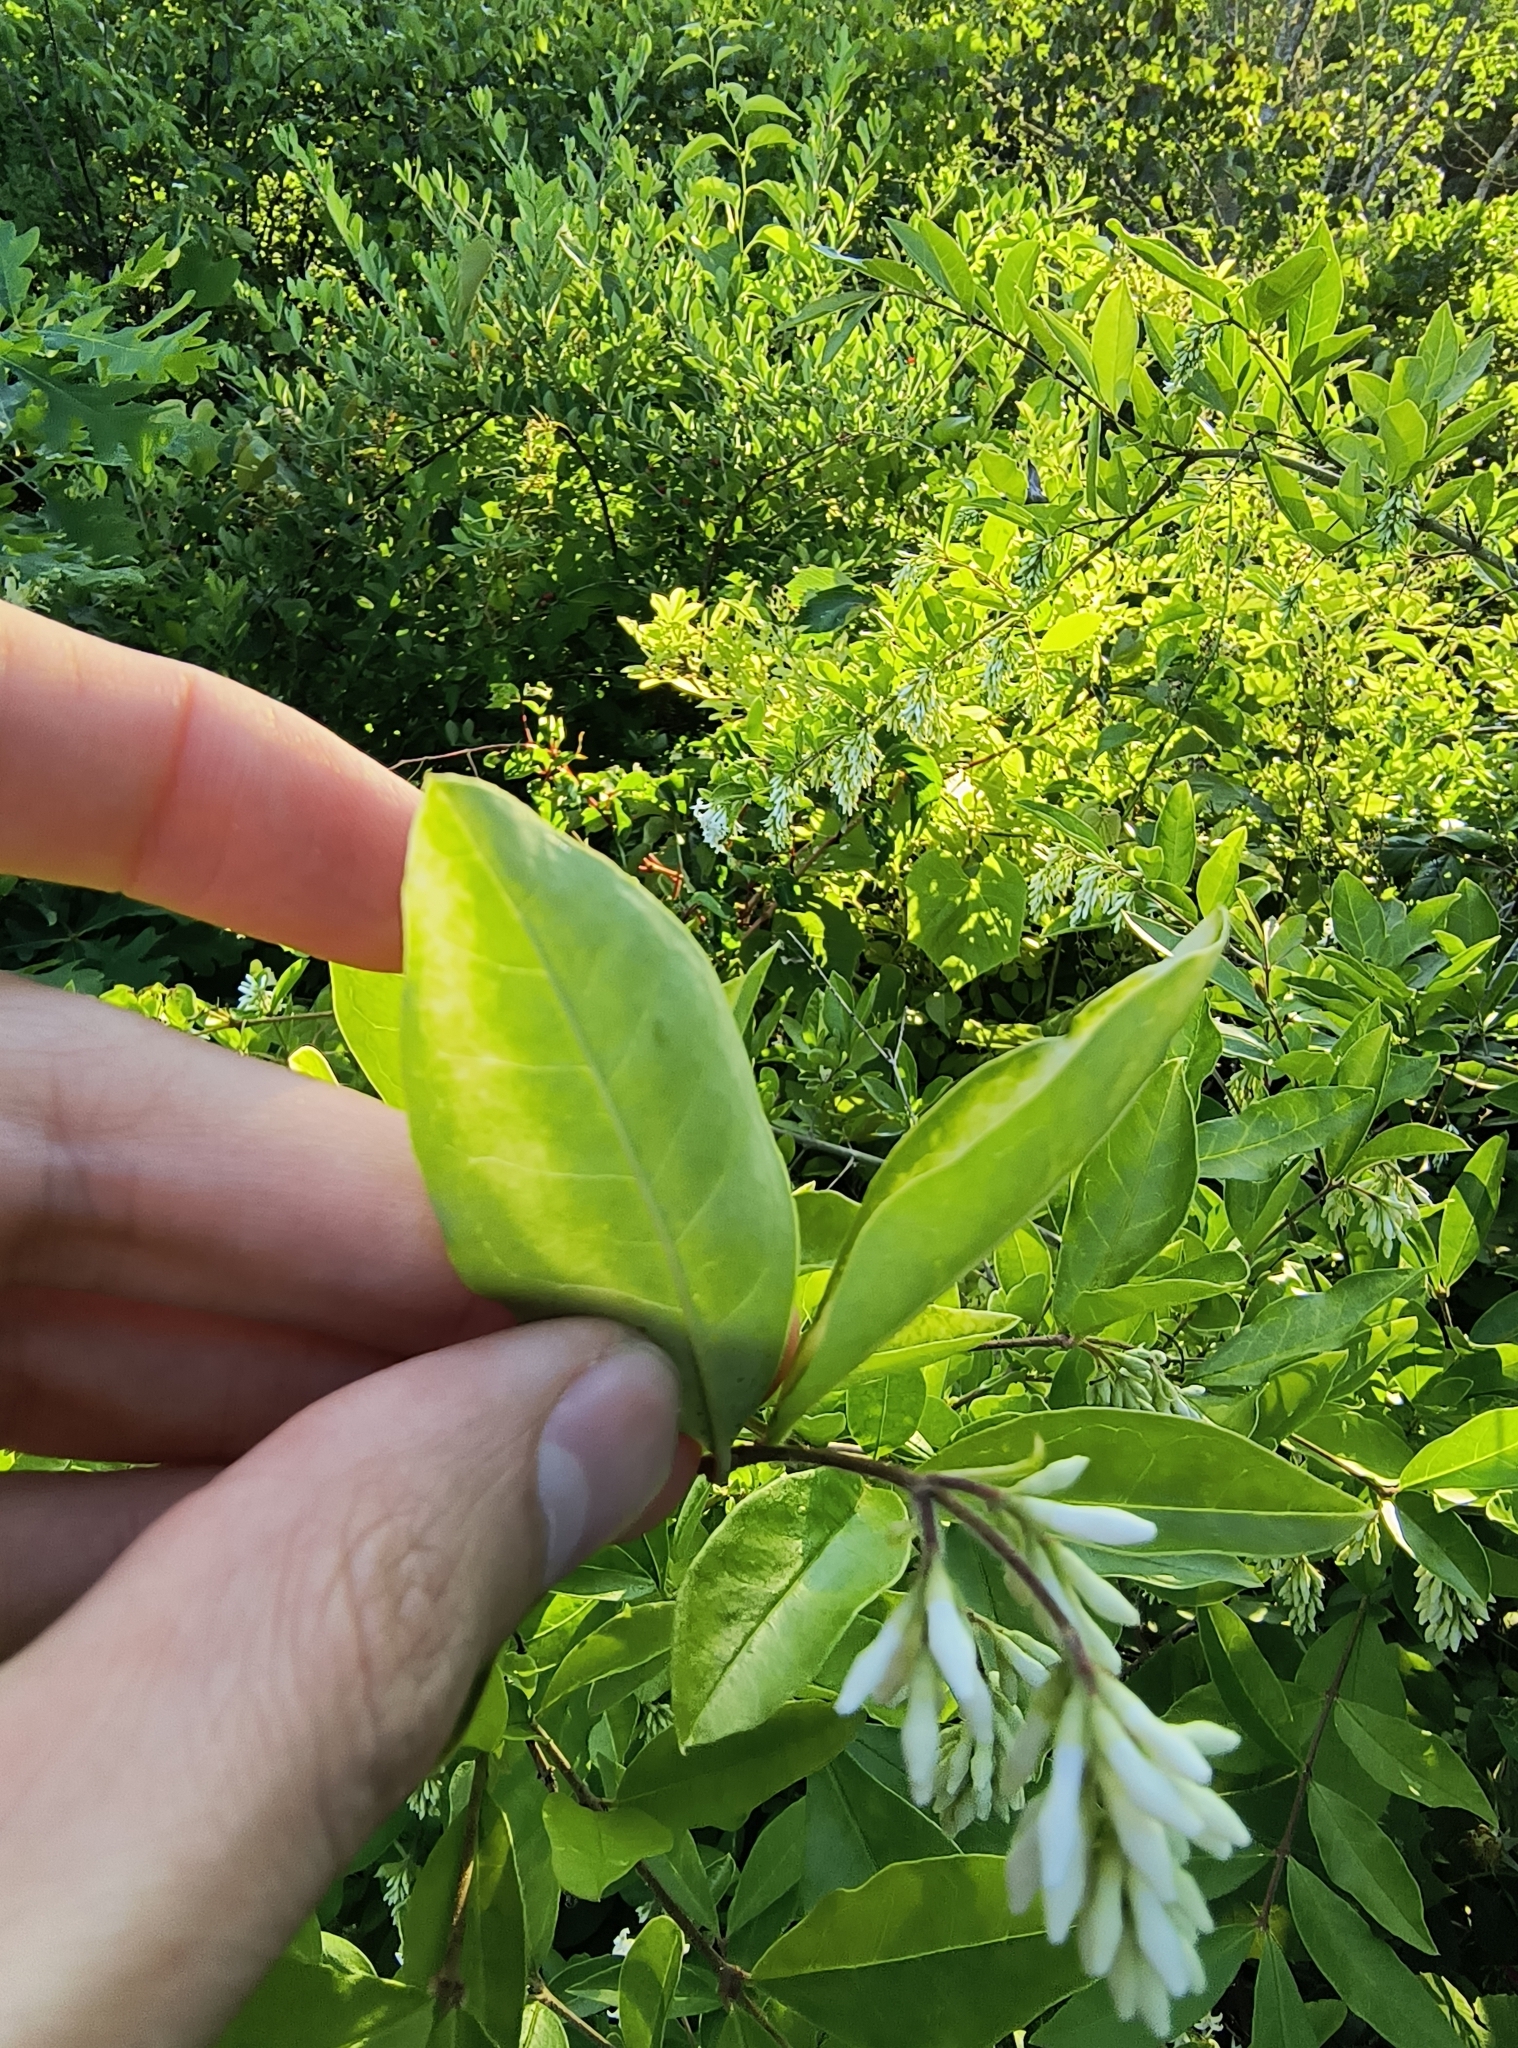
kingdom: Plantae
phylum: Tracheophyta
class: Magnoliopsida
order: Lamiales
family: Oleaceae
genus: Ligustrum
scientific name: Ligustrum obtusifolium
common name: Border privet
